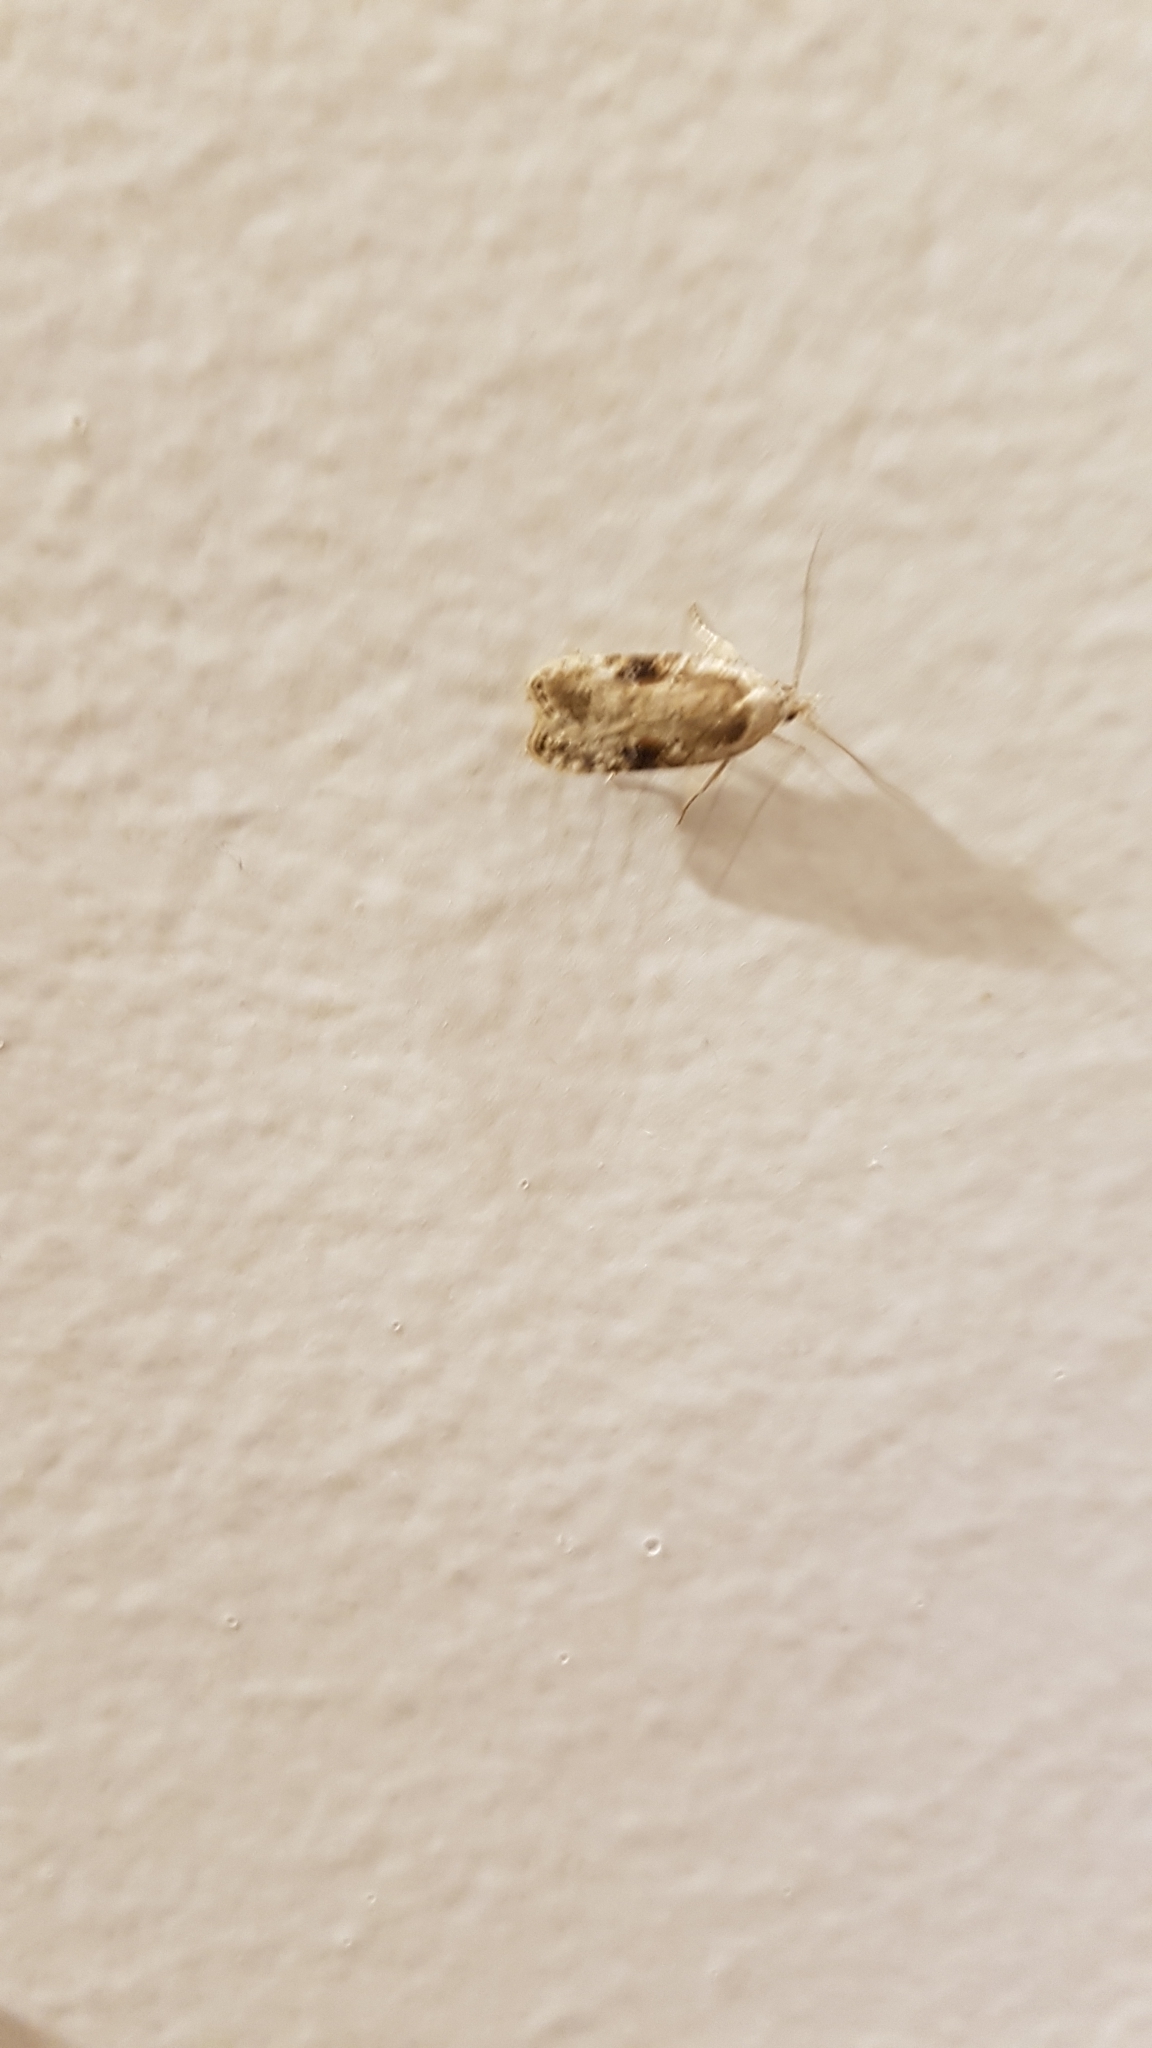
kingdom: Animalia
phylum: Arthropoda
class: Insecta
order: Lepidoptera
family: Depressariidae
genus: Agonopterix
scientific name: Agonopterix alstroemeriana
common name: Moth
